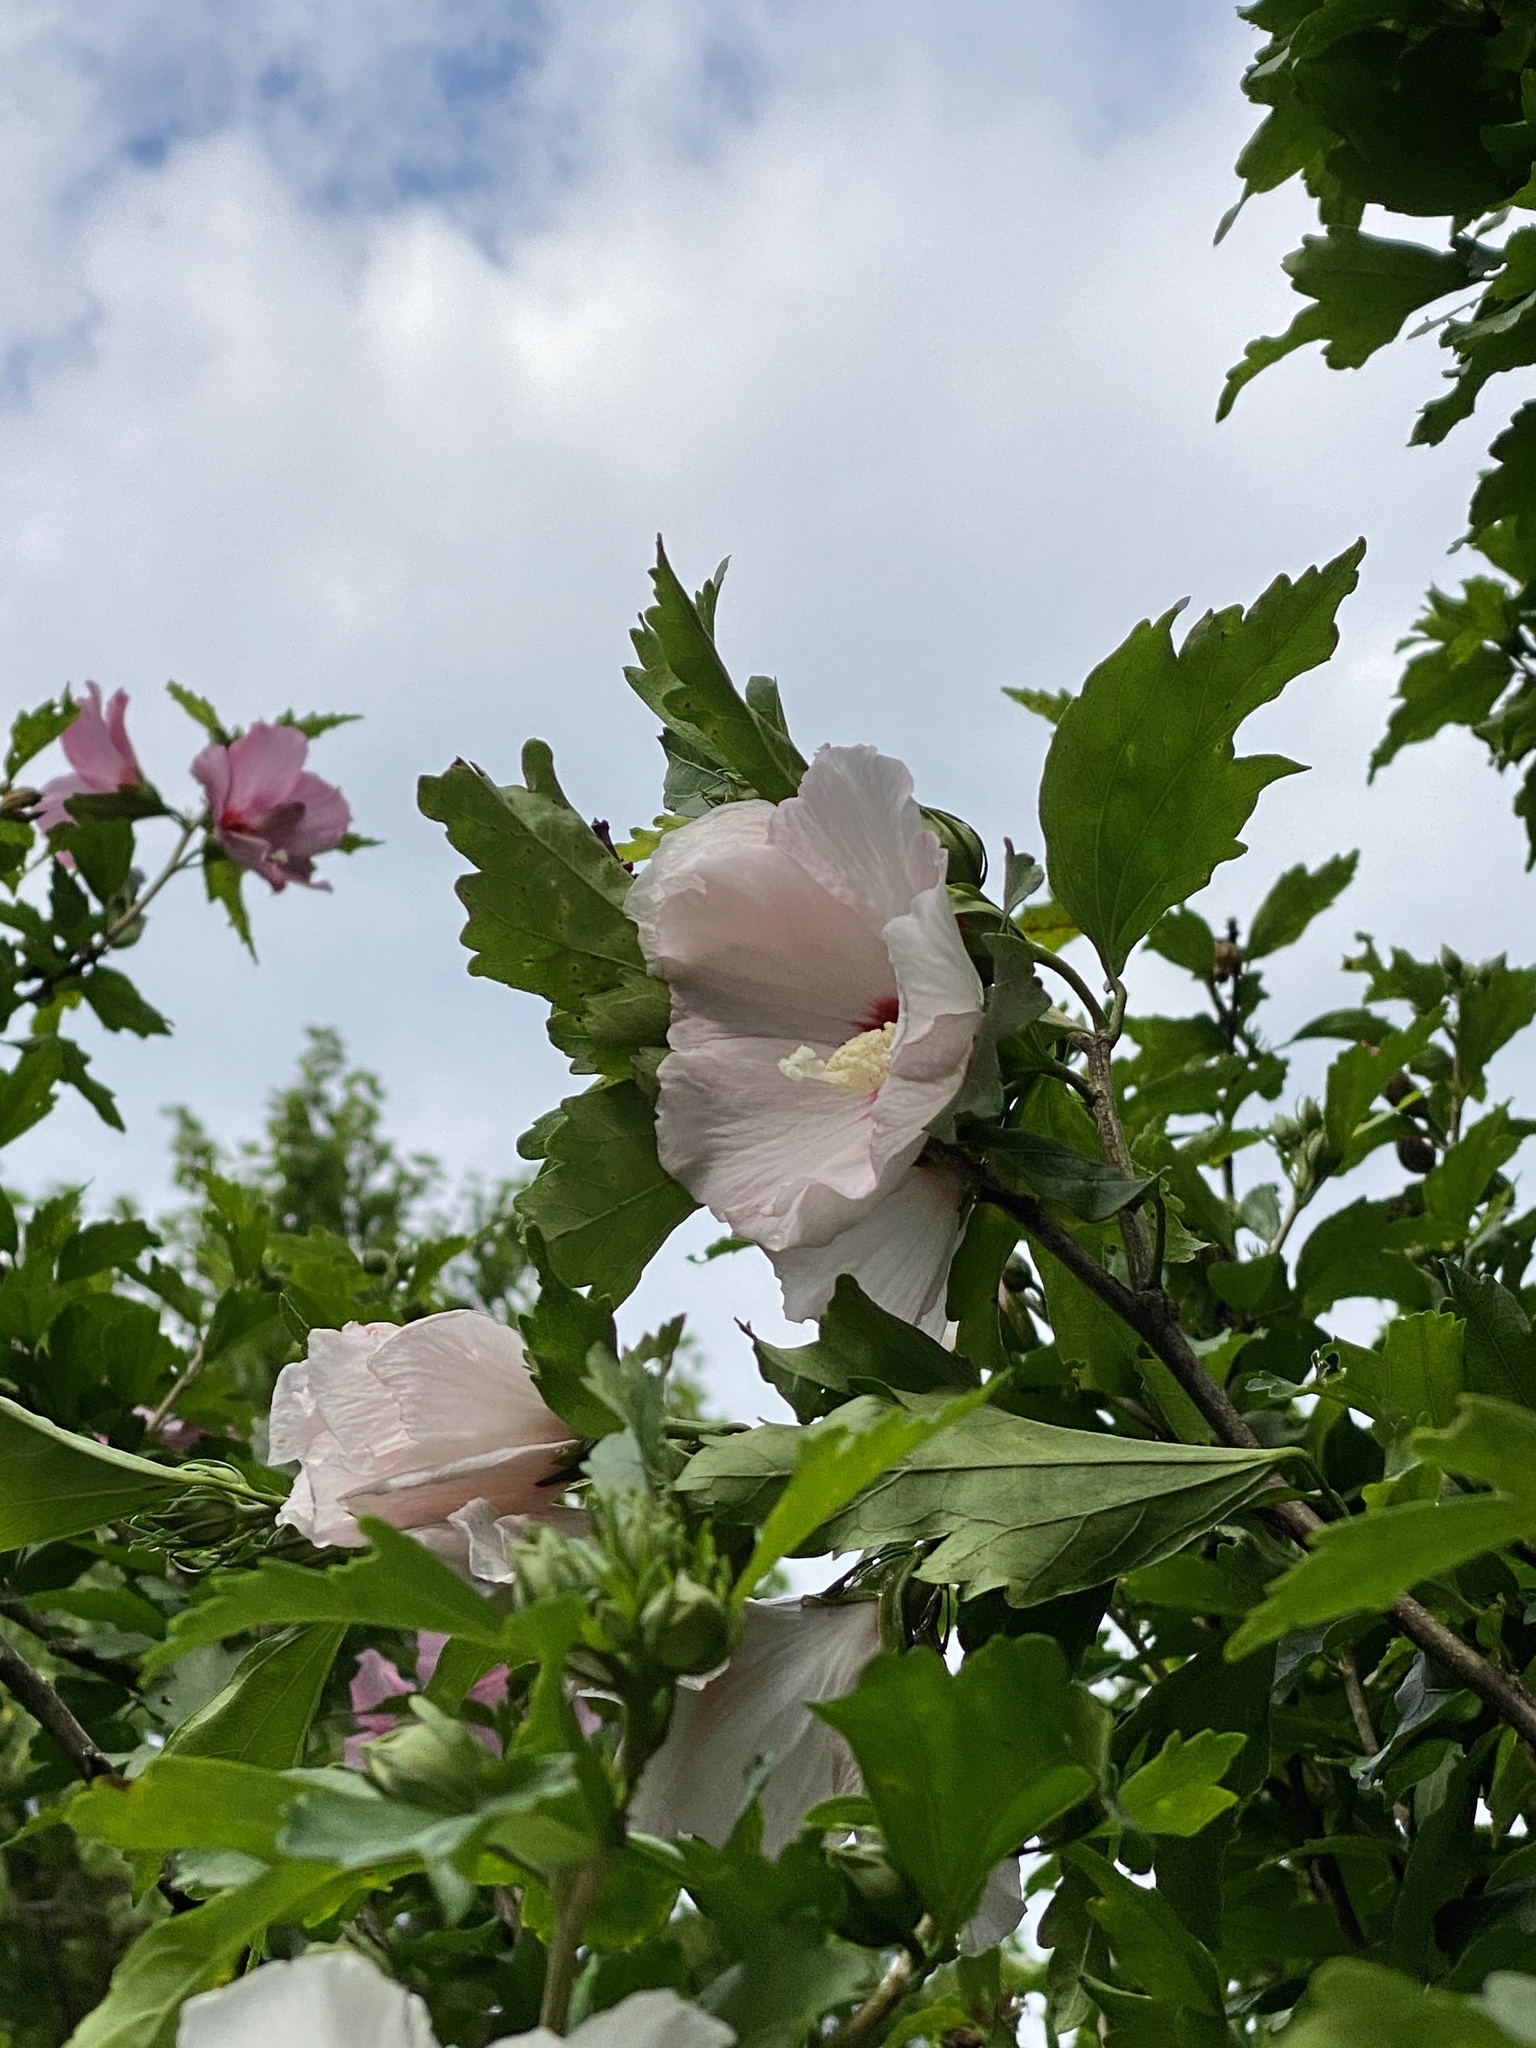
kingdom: Plantae
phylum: Tracheophyta
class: Magnoliopsida
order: Malvales
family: Malvaceae
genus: Hibiscus
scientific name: Hibiscus syriacus
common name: Syrian ketmia
